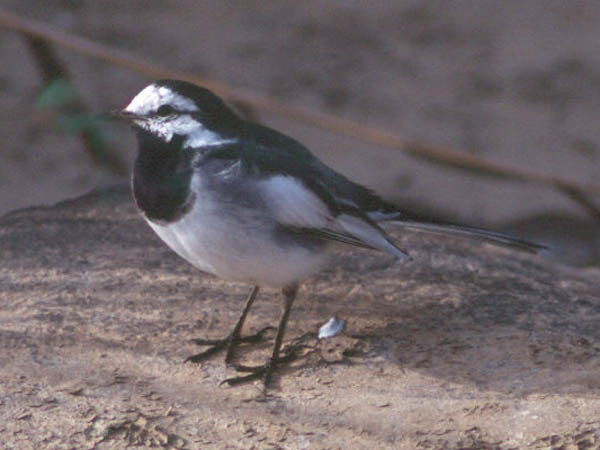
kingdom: Animalia
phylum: Chordata
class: Aves
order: Passeriformes
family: Motacillidae
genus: Motacilla
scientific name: Motacilla alba
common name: White wagtail
